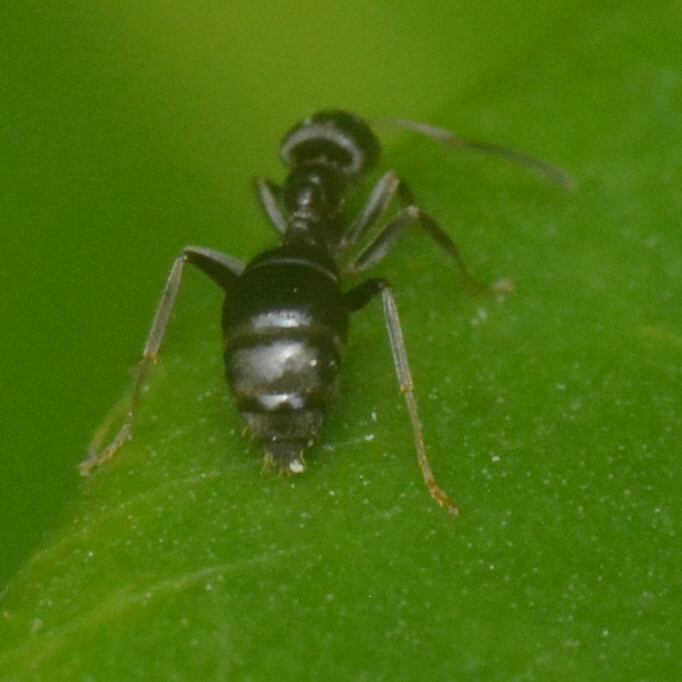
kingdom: Animalia
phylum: Arthropoda
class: Insecta
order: Hymenoptera
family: Formicidae
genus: Lasius
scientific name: Lasius
